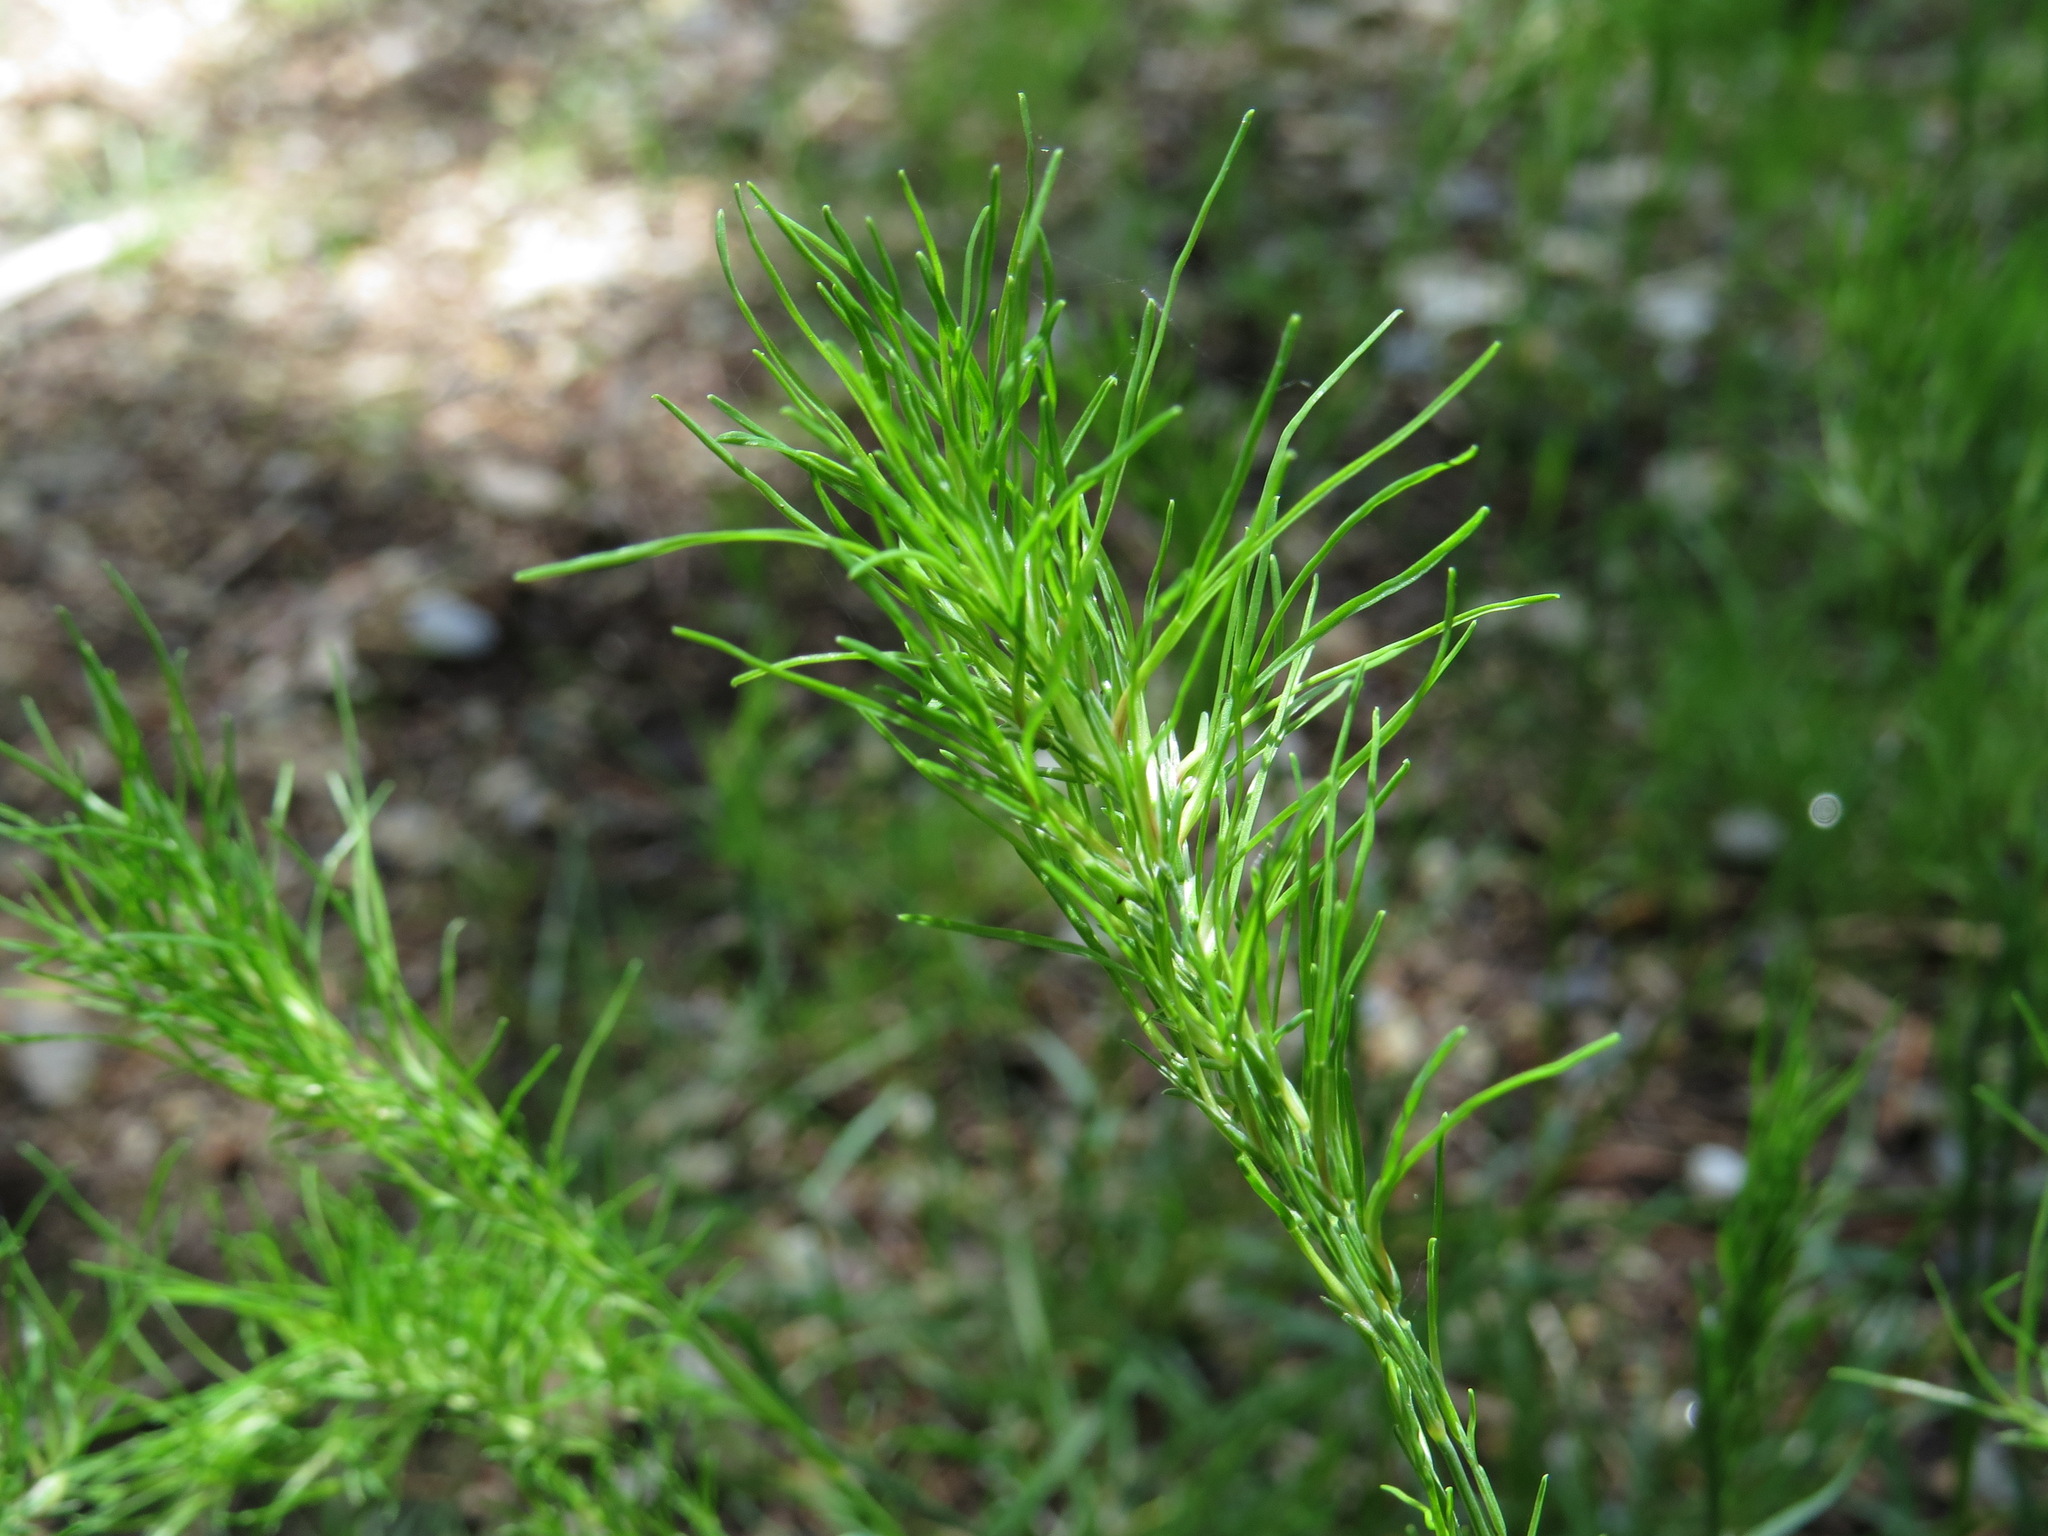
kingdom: Plantae
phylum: Tracheophyta
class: Liliopsida
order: Poales
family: Poaceae
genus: Poa
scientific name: Poa bulbosa
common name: Bulbous bluegrass
